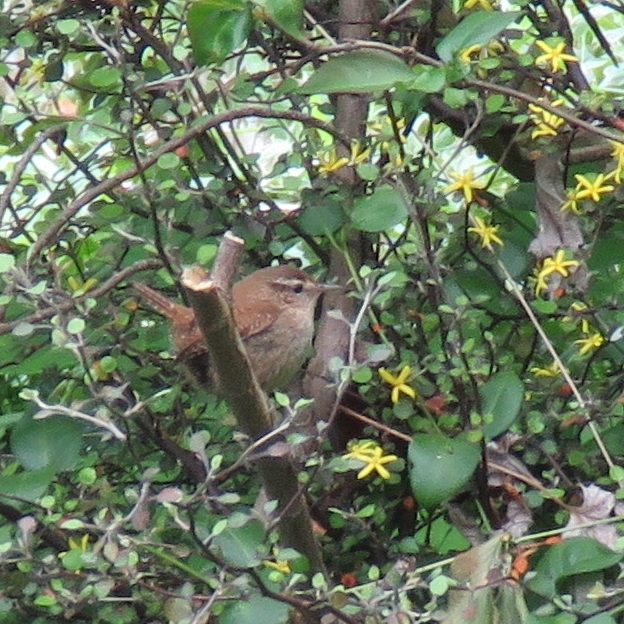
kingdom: Animalia
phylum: Chordata
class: Aves
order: Passeriformes
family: Troglodytidae
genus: Troglodytes
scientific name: Troglodytes troglodytes
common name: Eurasian wren
